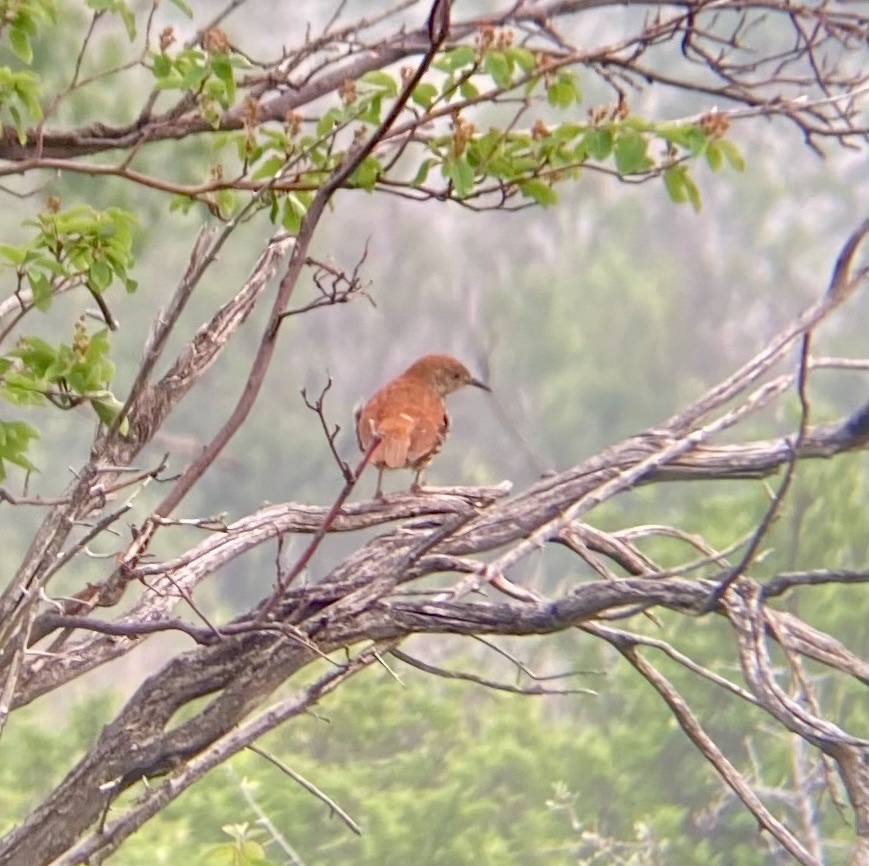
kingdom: Animalia
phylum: Chordata
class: Aves
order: Passeriformes
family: Mimidae
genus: Toxostoma
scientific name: Toxostoma rufum
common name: Brown thrasher
